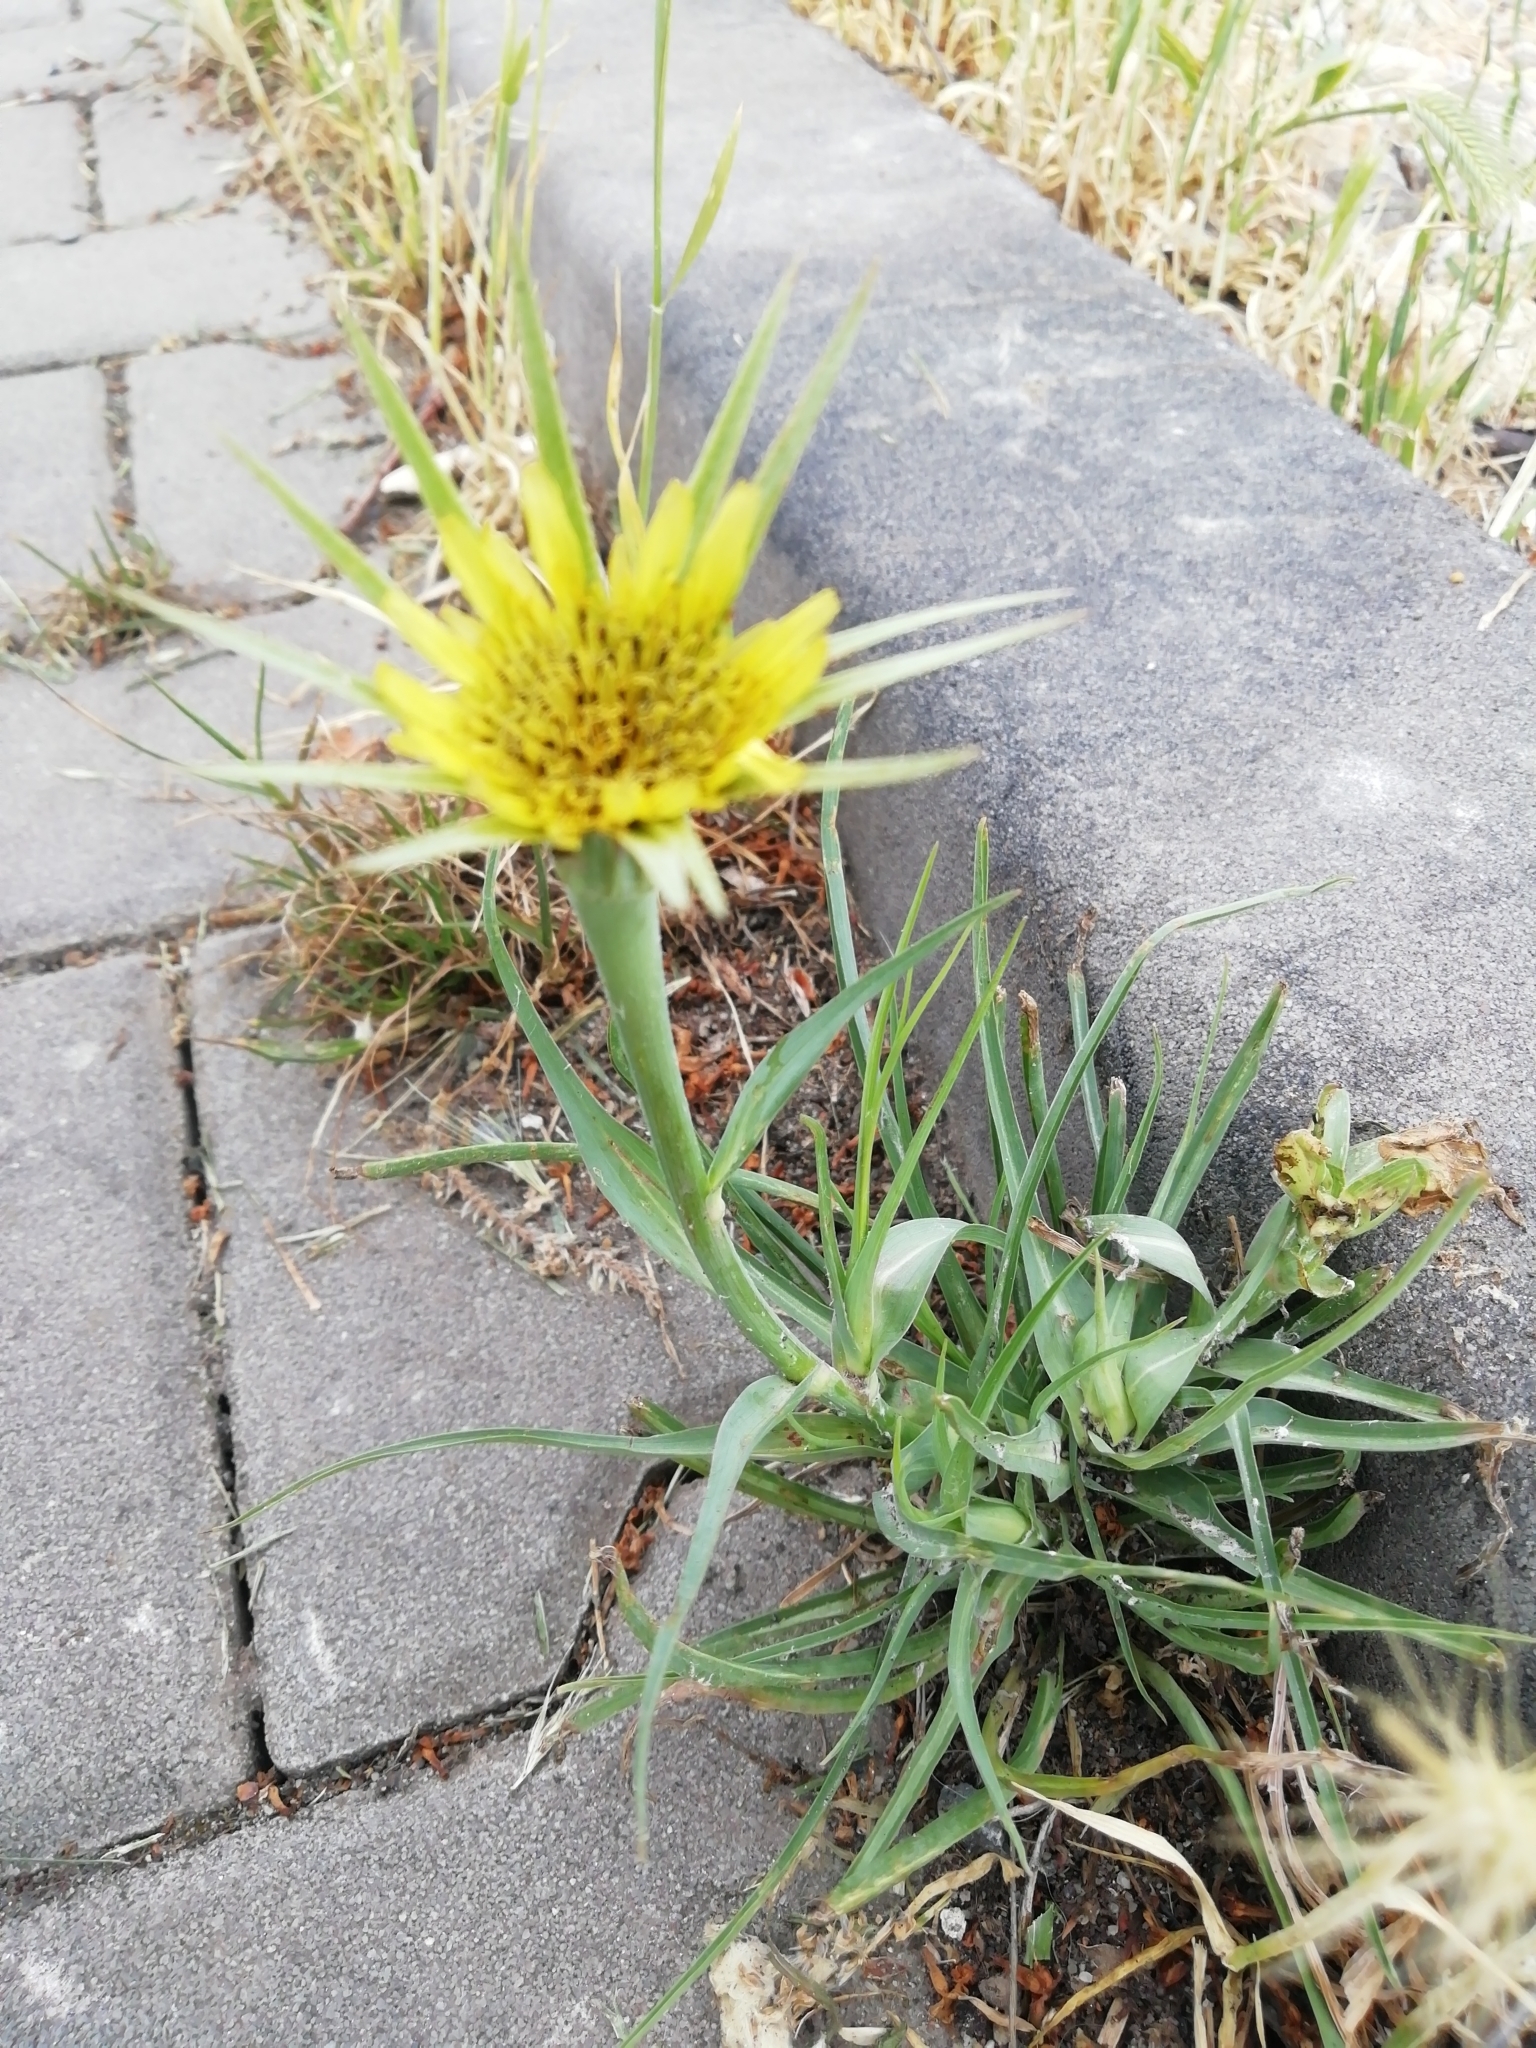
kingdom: Plantae
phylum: Tracheophyta
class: Magnoliopsida
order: Asterales
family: Asteraceae
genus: Tragopogon
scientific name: Tragopogon dubius
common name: Yellow salsify
